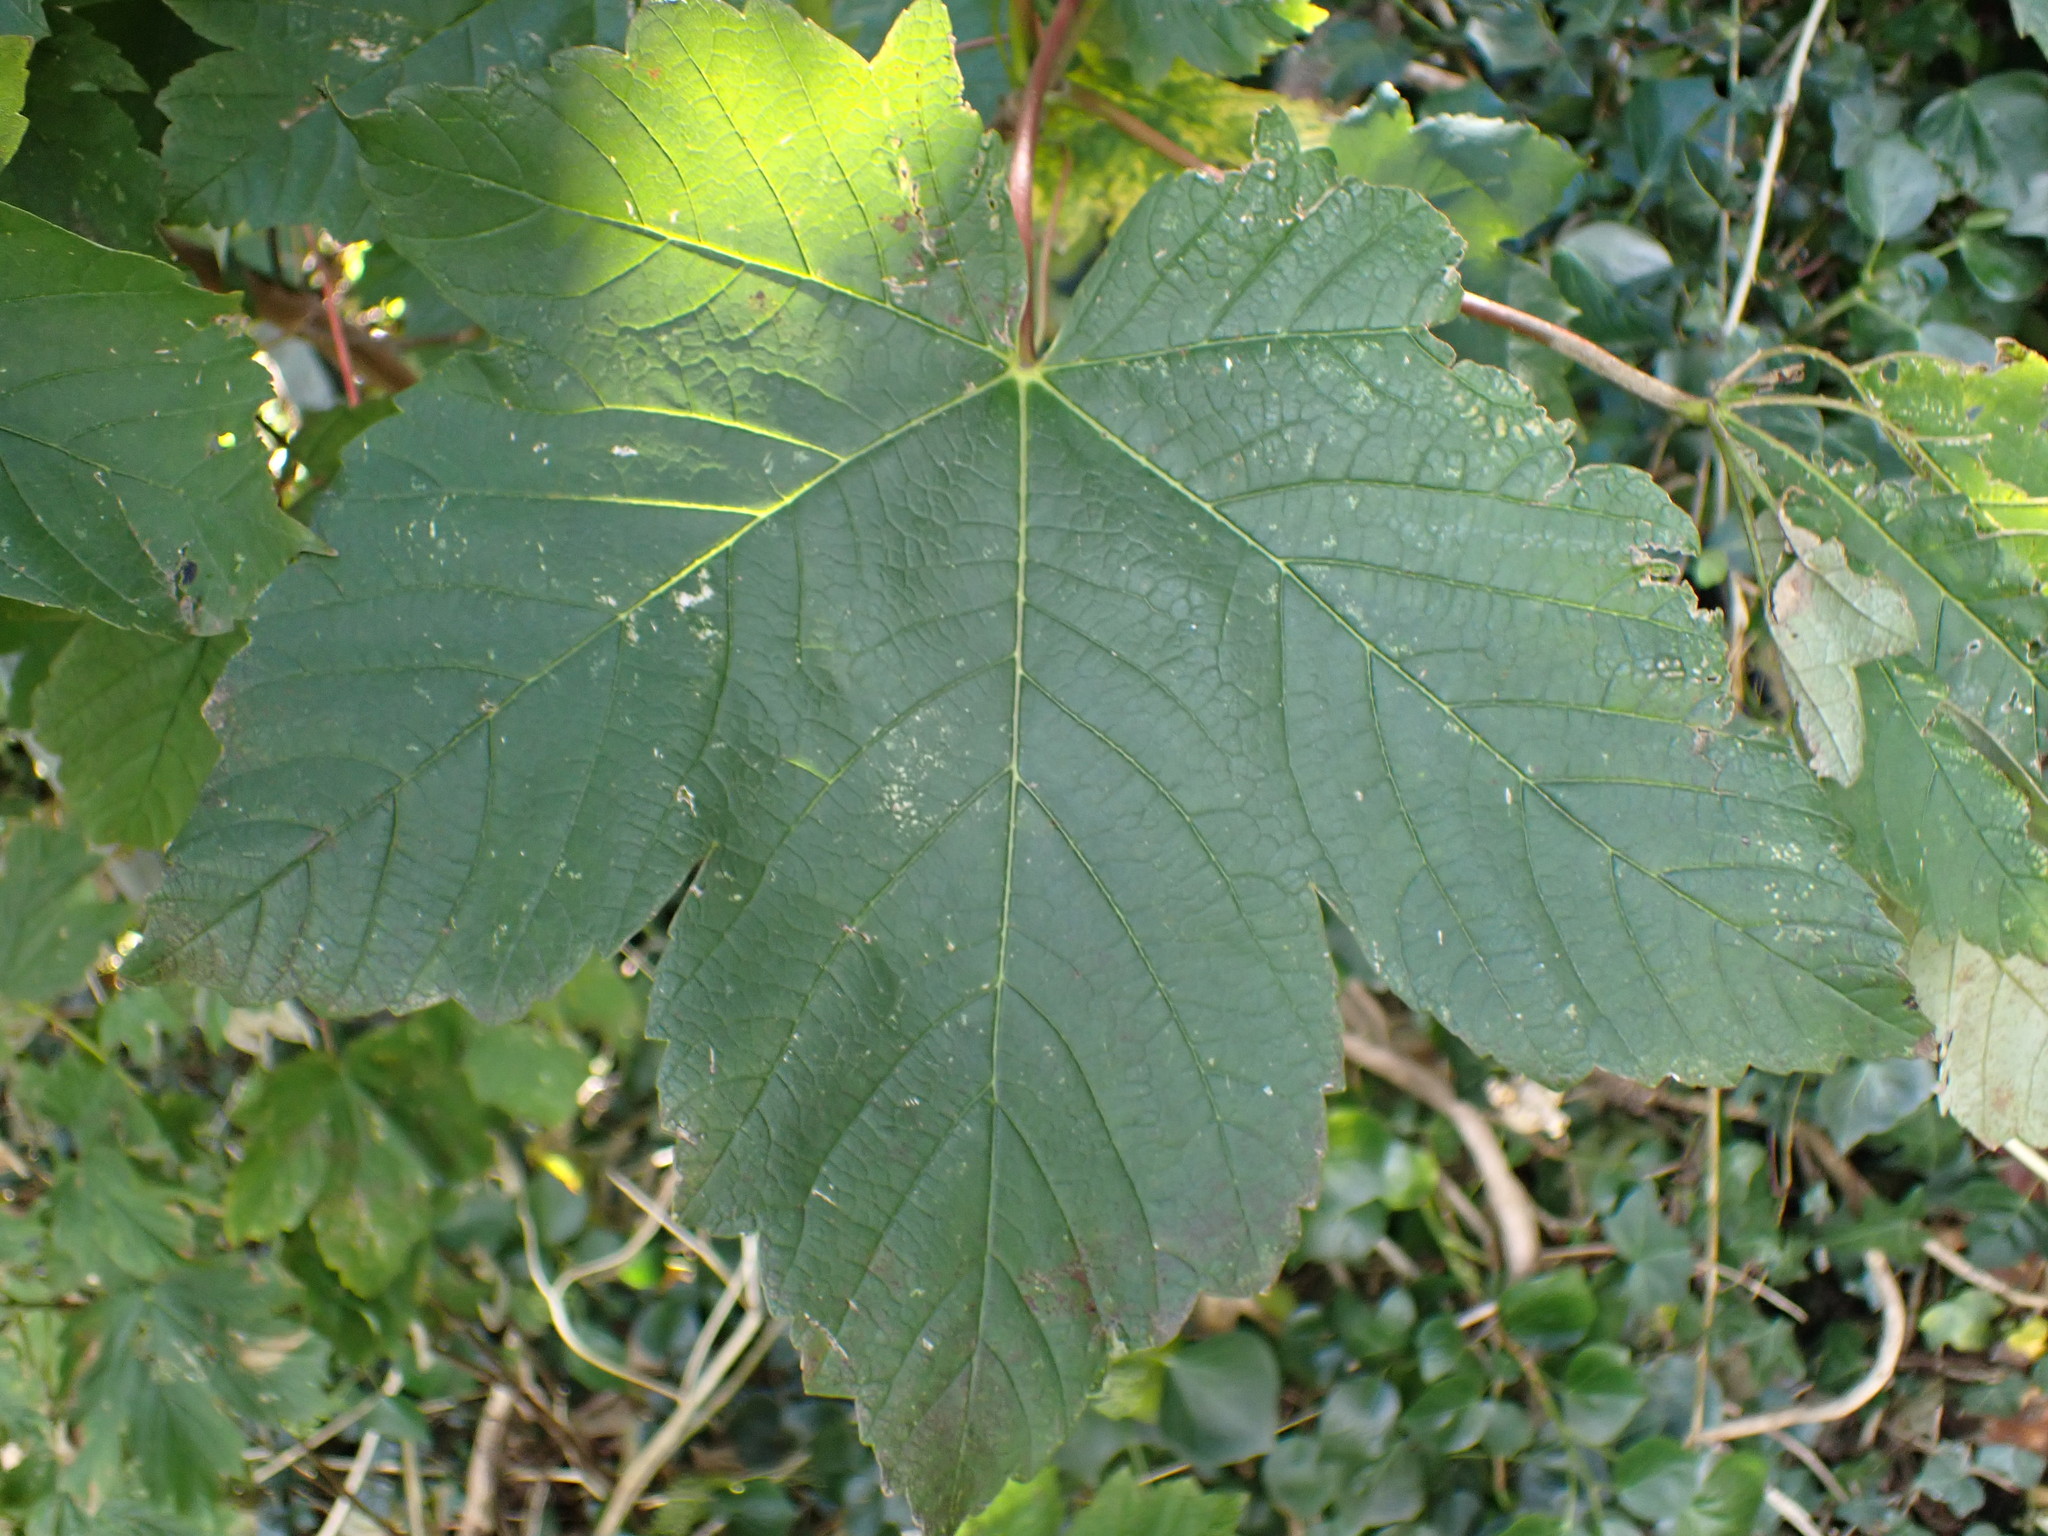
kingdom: Plantae
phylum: Tracheophyta
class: Magnoliopsida
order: Sapindales
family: Sapindaceae
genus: Acer
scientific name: Acer pseudoplatanus
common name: Sycamore
